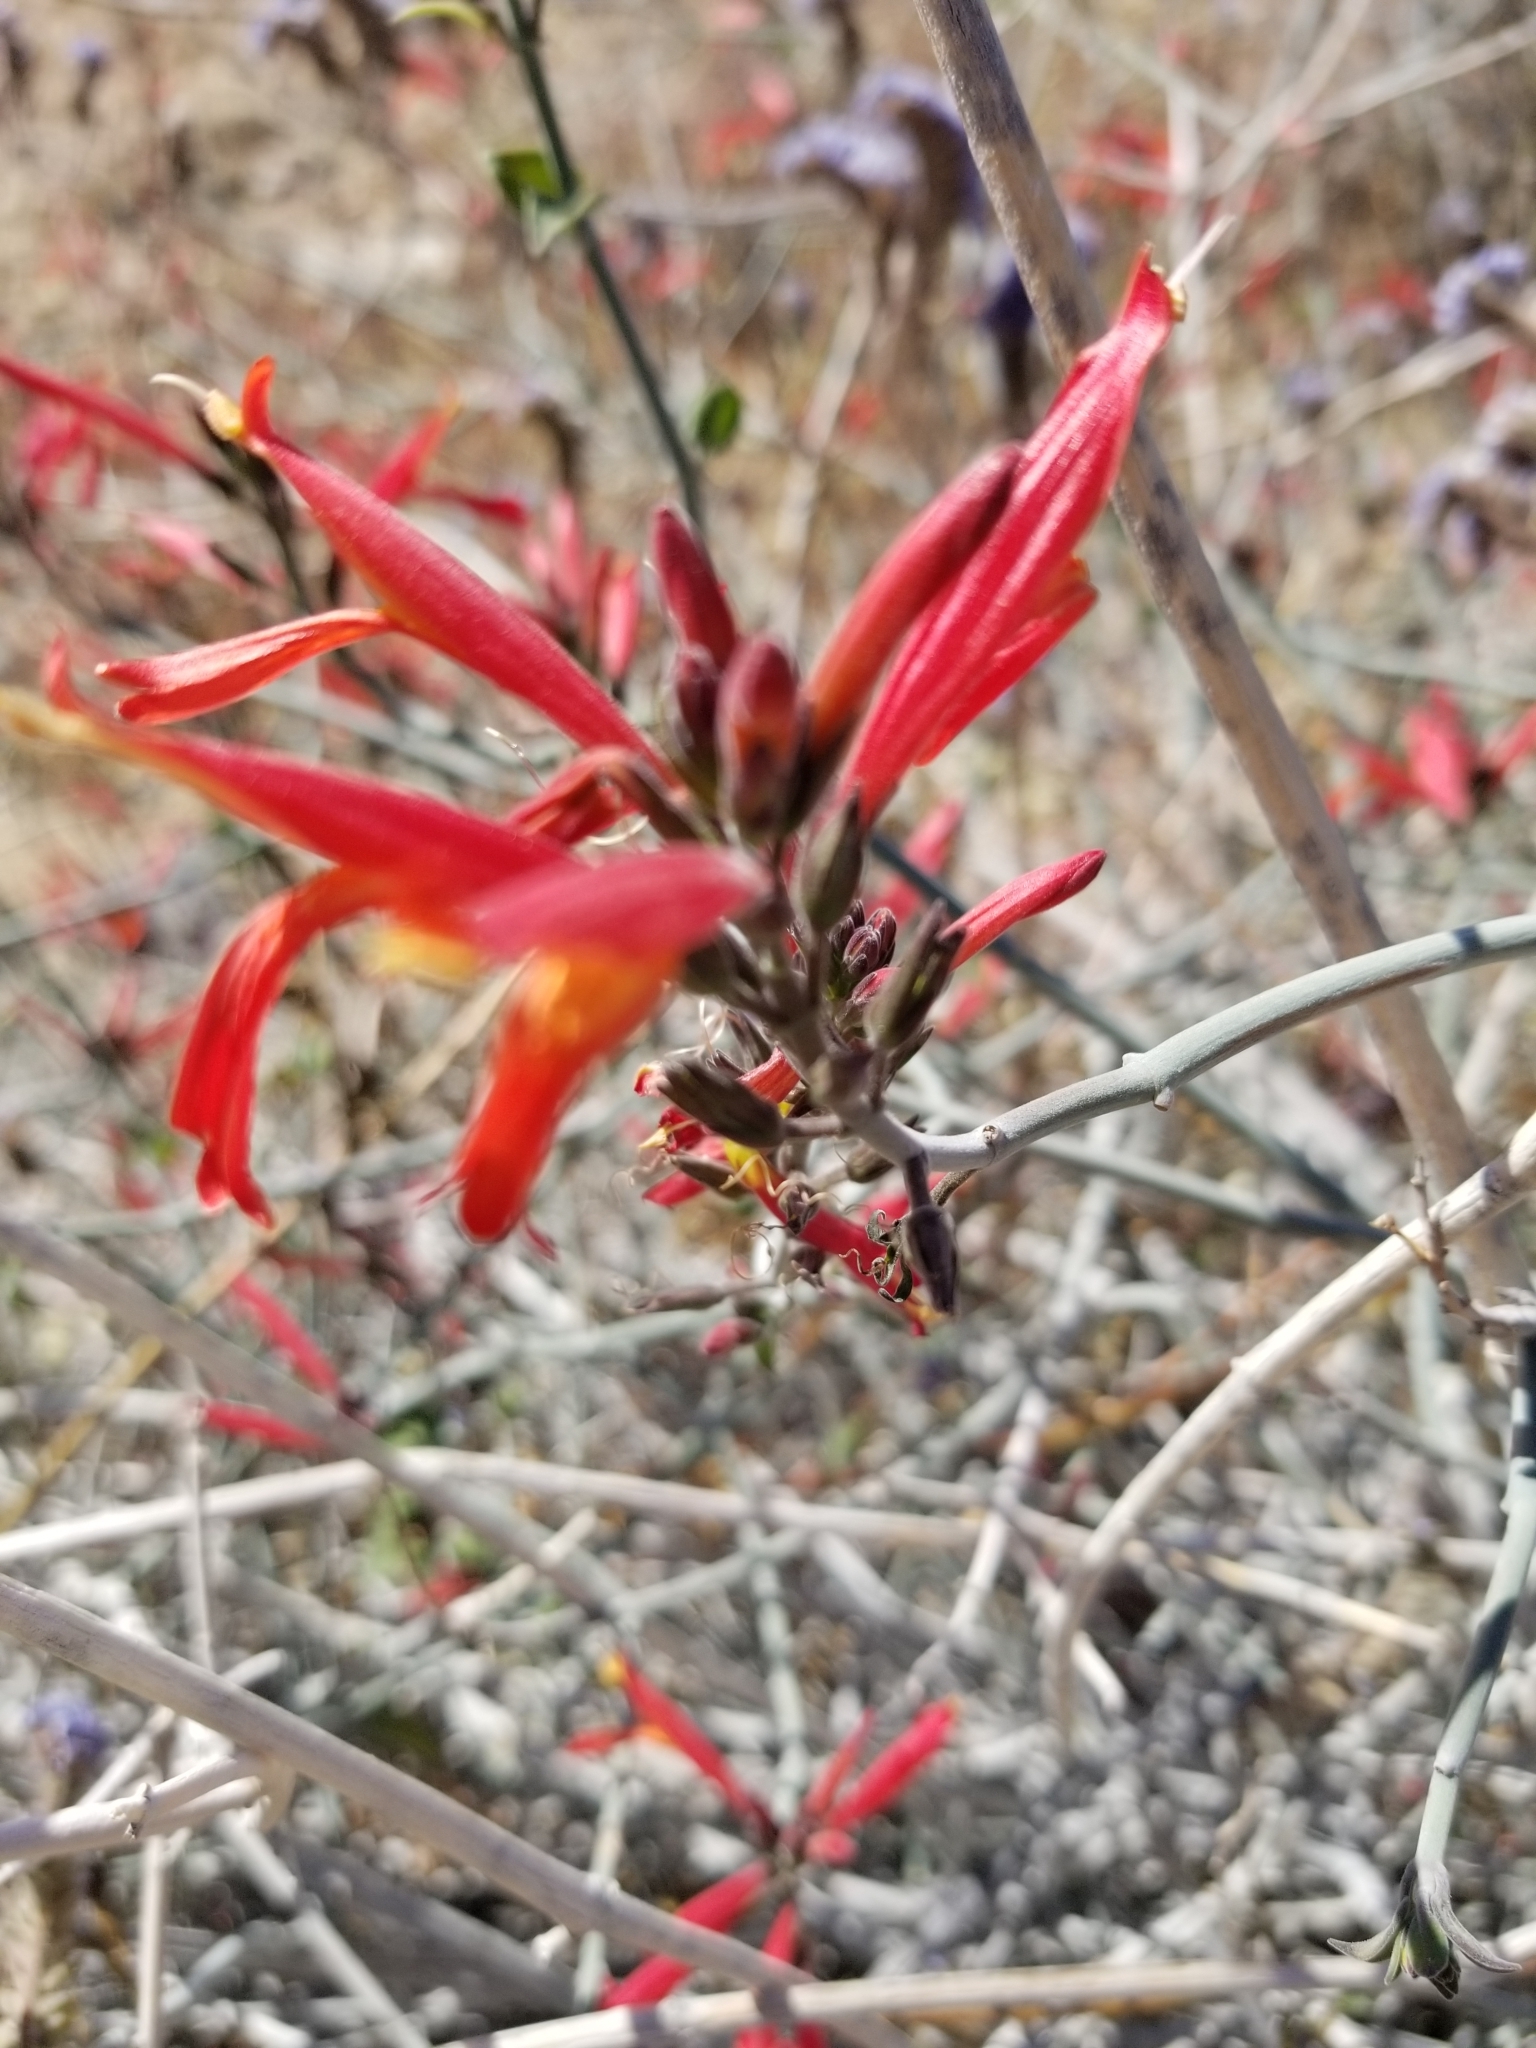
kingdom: Plantae
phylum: Tracheophyta
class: Magnoliopsida
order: Lamiales
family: Acanthaceae
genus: Justicia
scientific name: Justicia californica
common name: Chuparosa-honeysuckle
